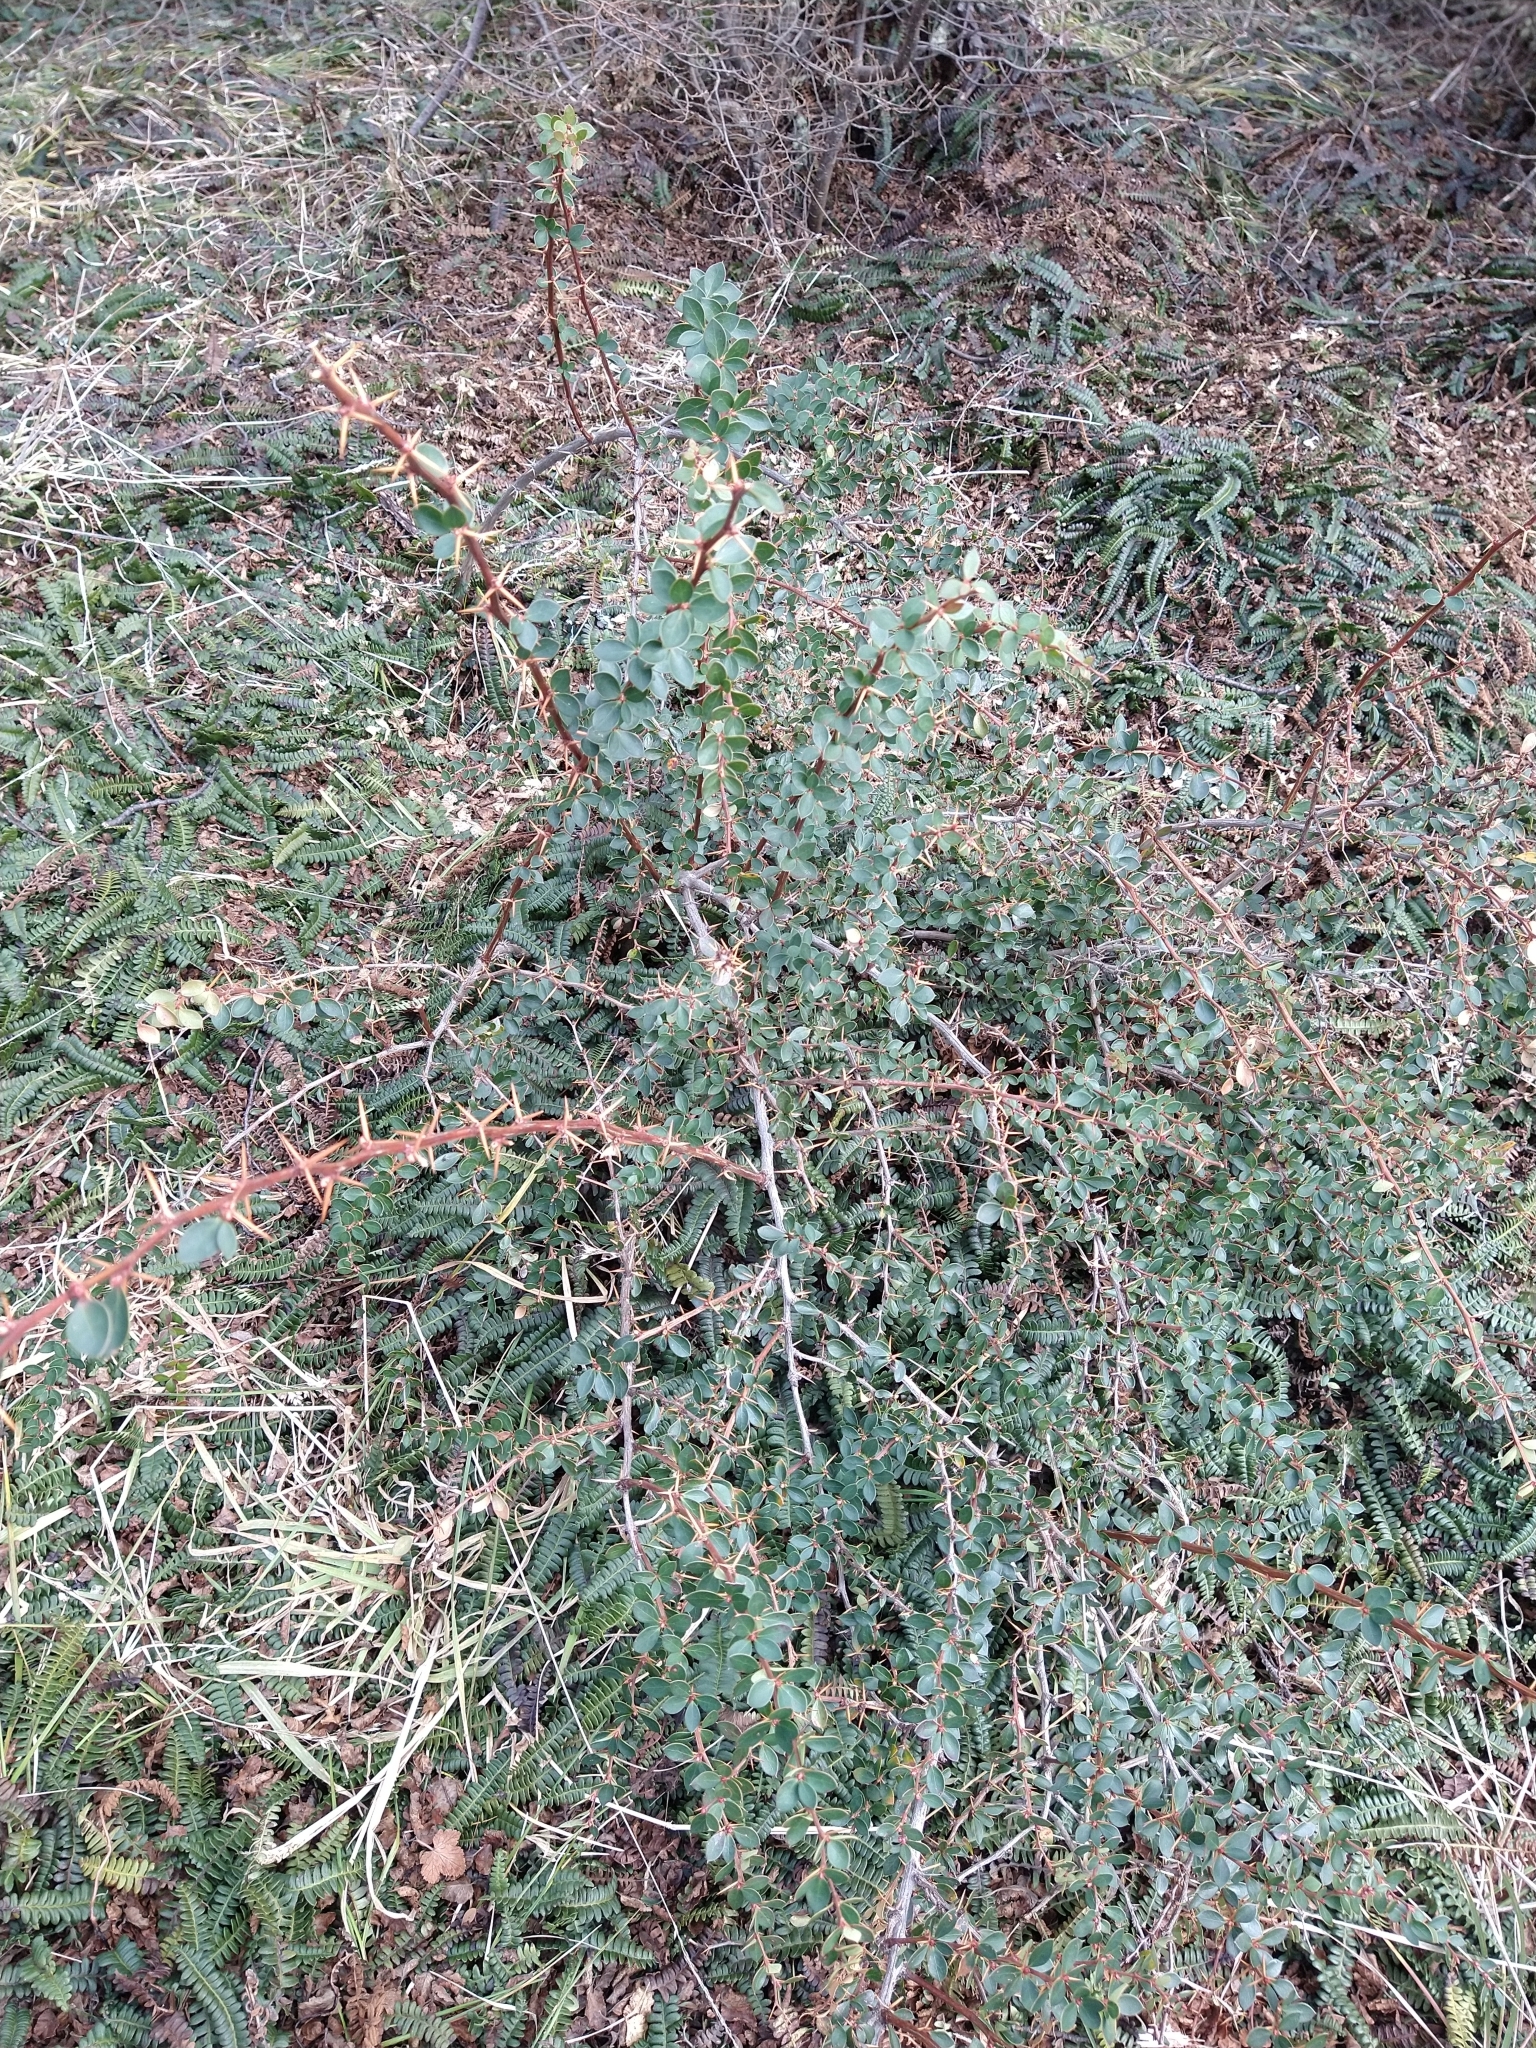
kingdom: Plantae
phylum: Tracheophyta
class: Magnoliopsida
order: Ranunculales
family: Berberidaceae
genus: Berberis
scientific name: Berberis microphylla
